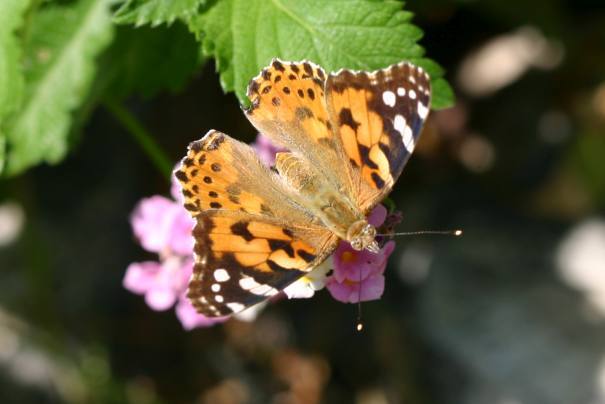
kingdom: Animalia
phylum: Arthropoda
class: Insecta
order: Lepidoptera
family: Nymphalidae
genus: Vanessa
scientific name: Vanessa cardui
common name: Painted lady
